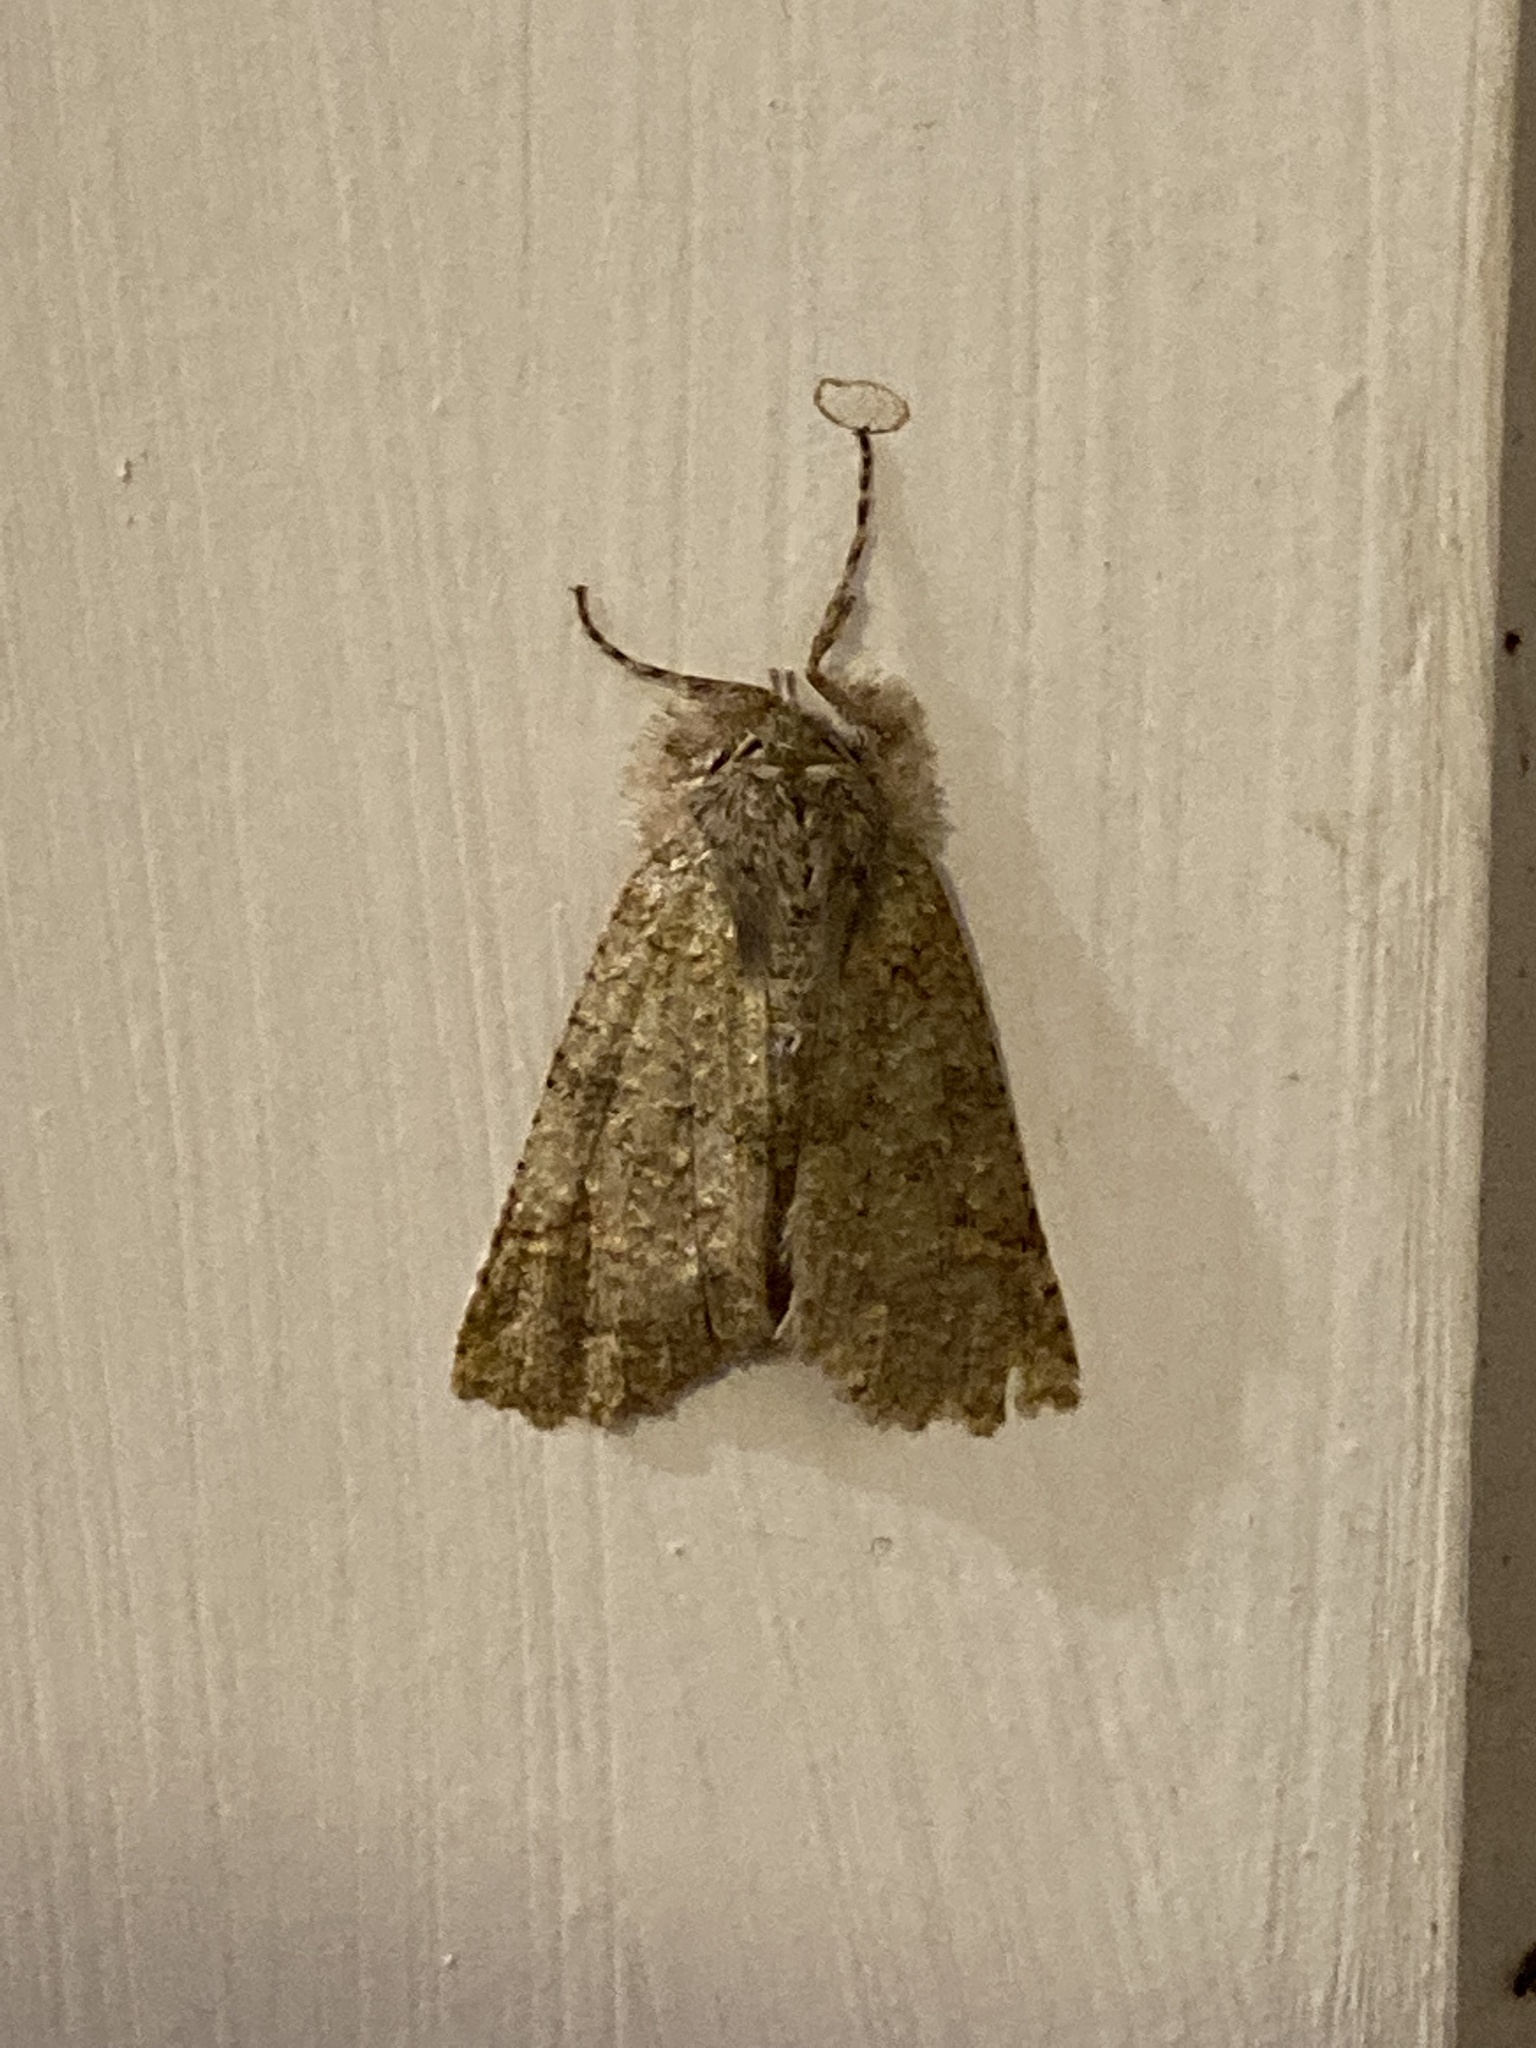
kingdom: Animalia
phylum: Arthropoda
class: Insecta
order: Lepidoptera
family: Geometridae
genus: Declana
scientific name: Declana floccosa
